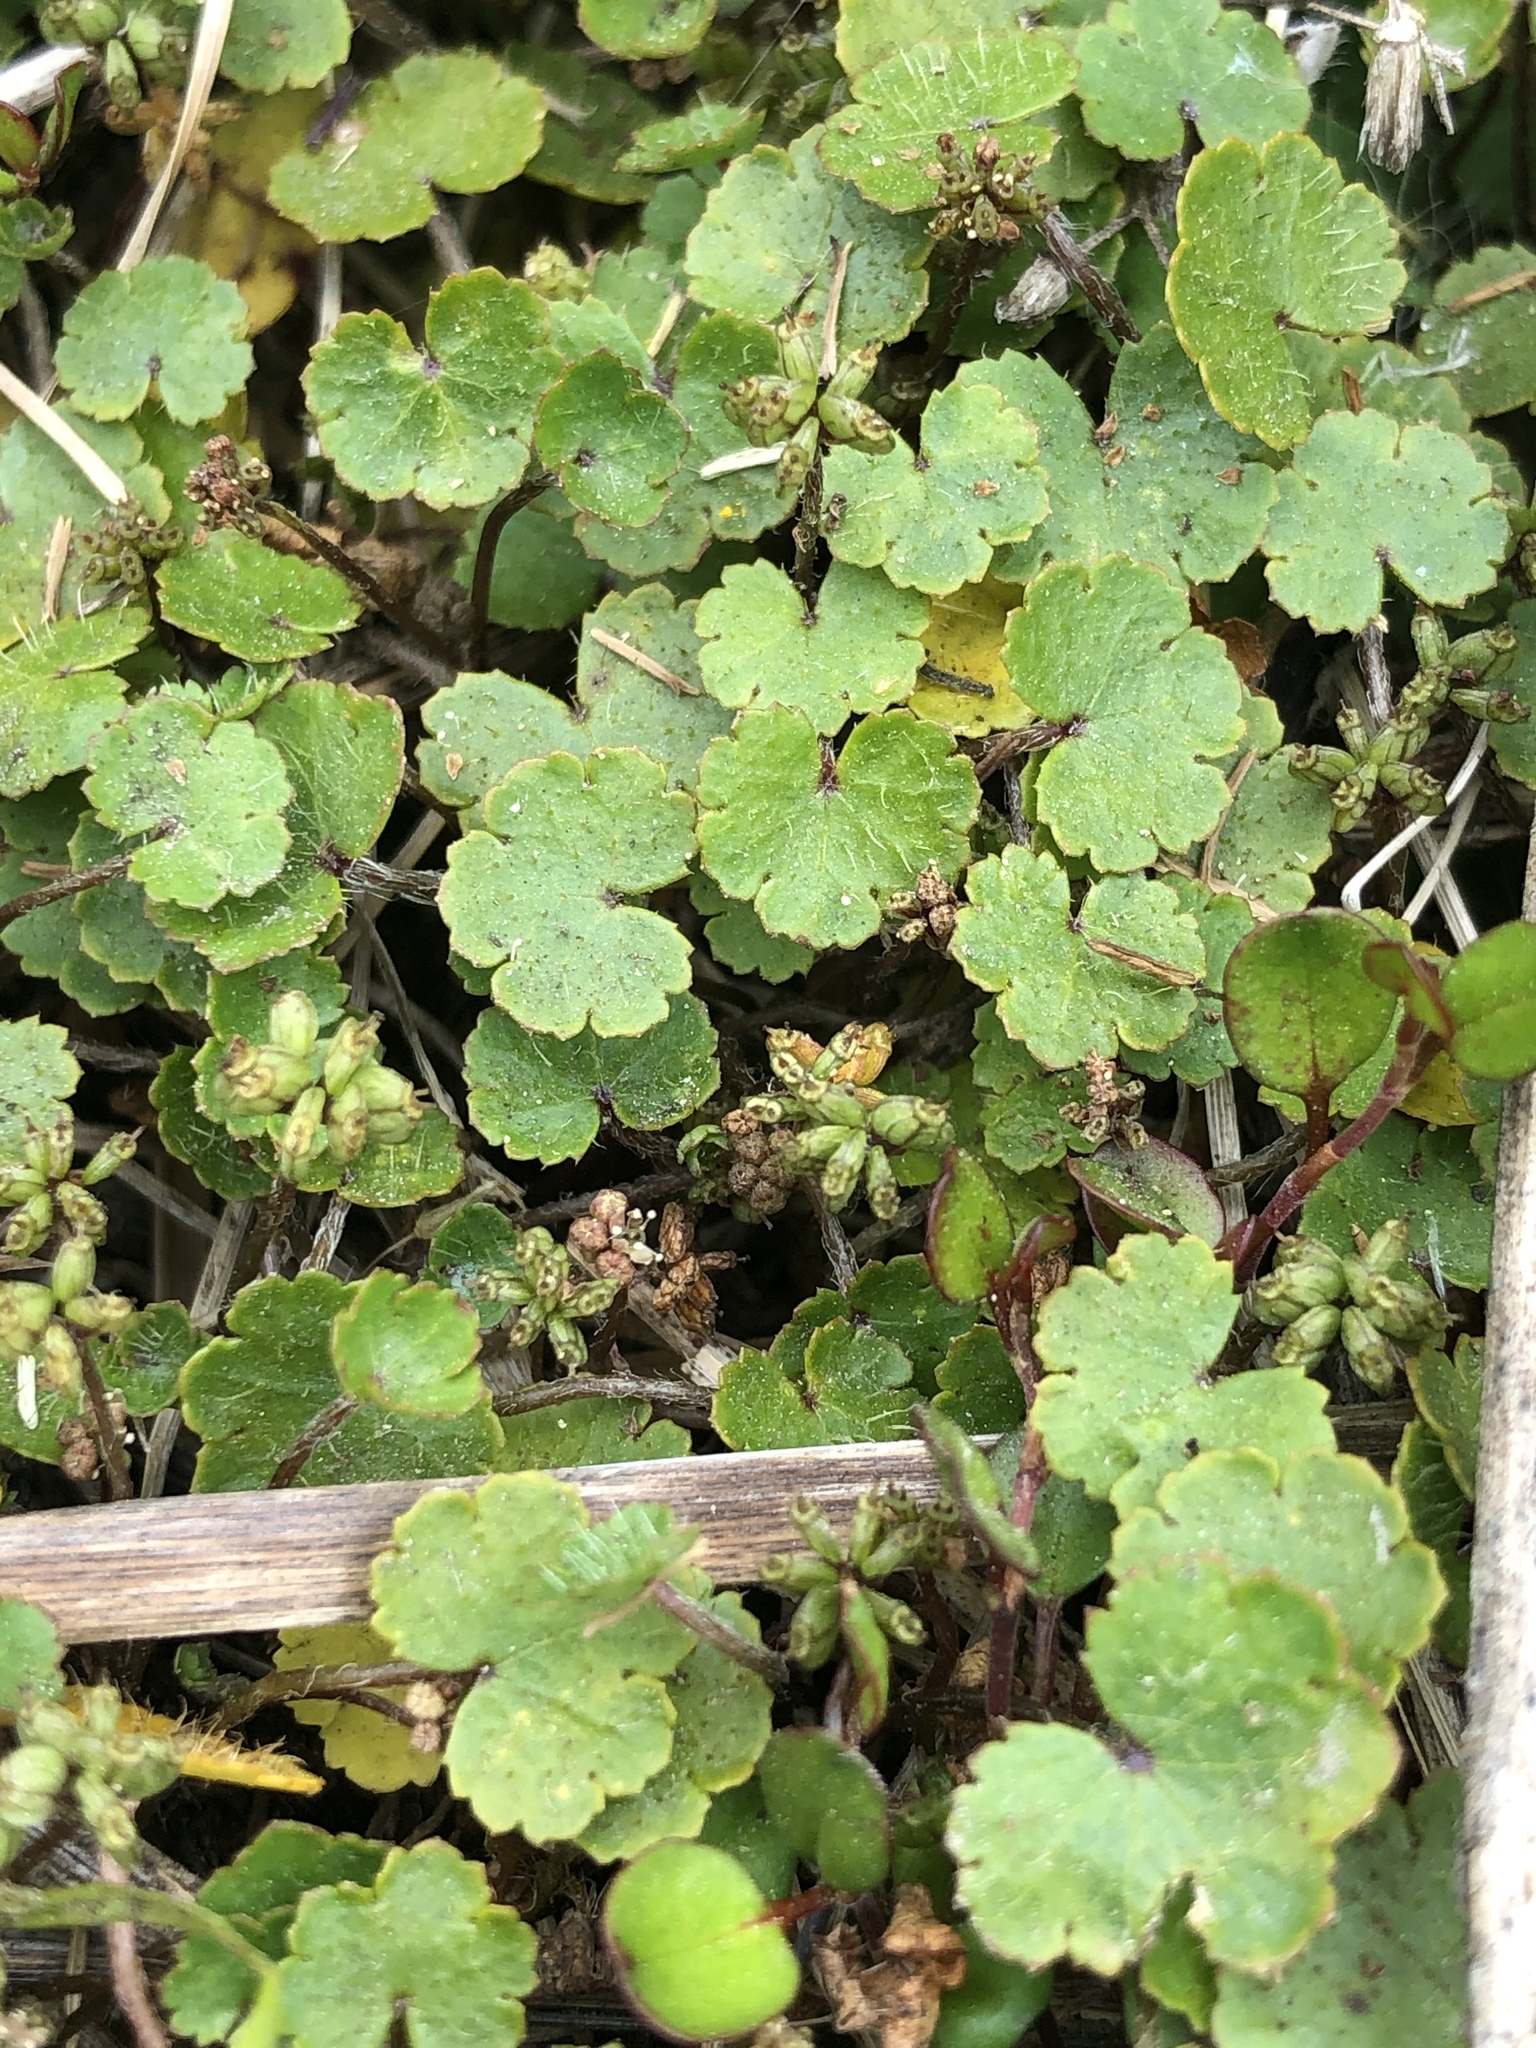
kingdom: Plantae
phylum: Tracheophyta
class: Magnoliopsida
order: Apiales
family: Araliaceae
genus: Hydrocotyle
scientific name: Hydrocotyle microphylla
